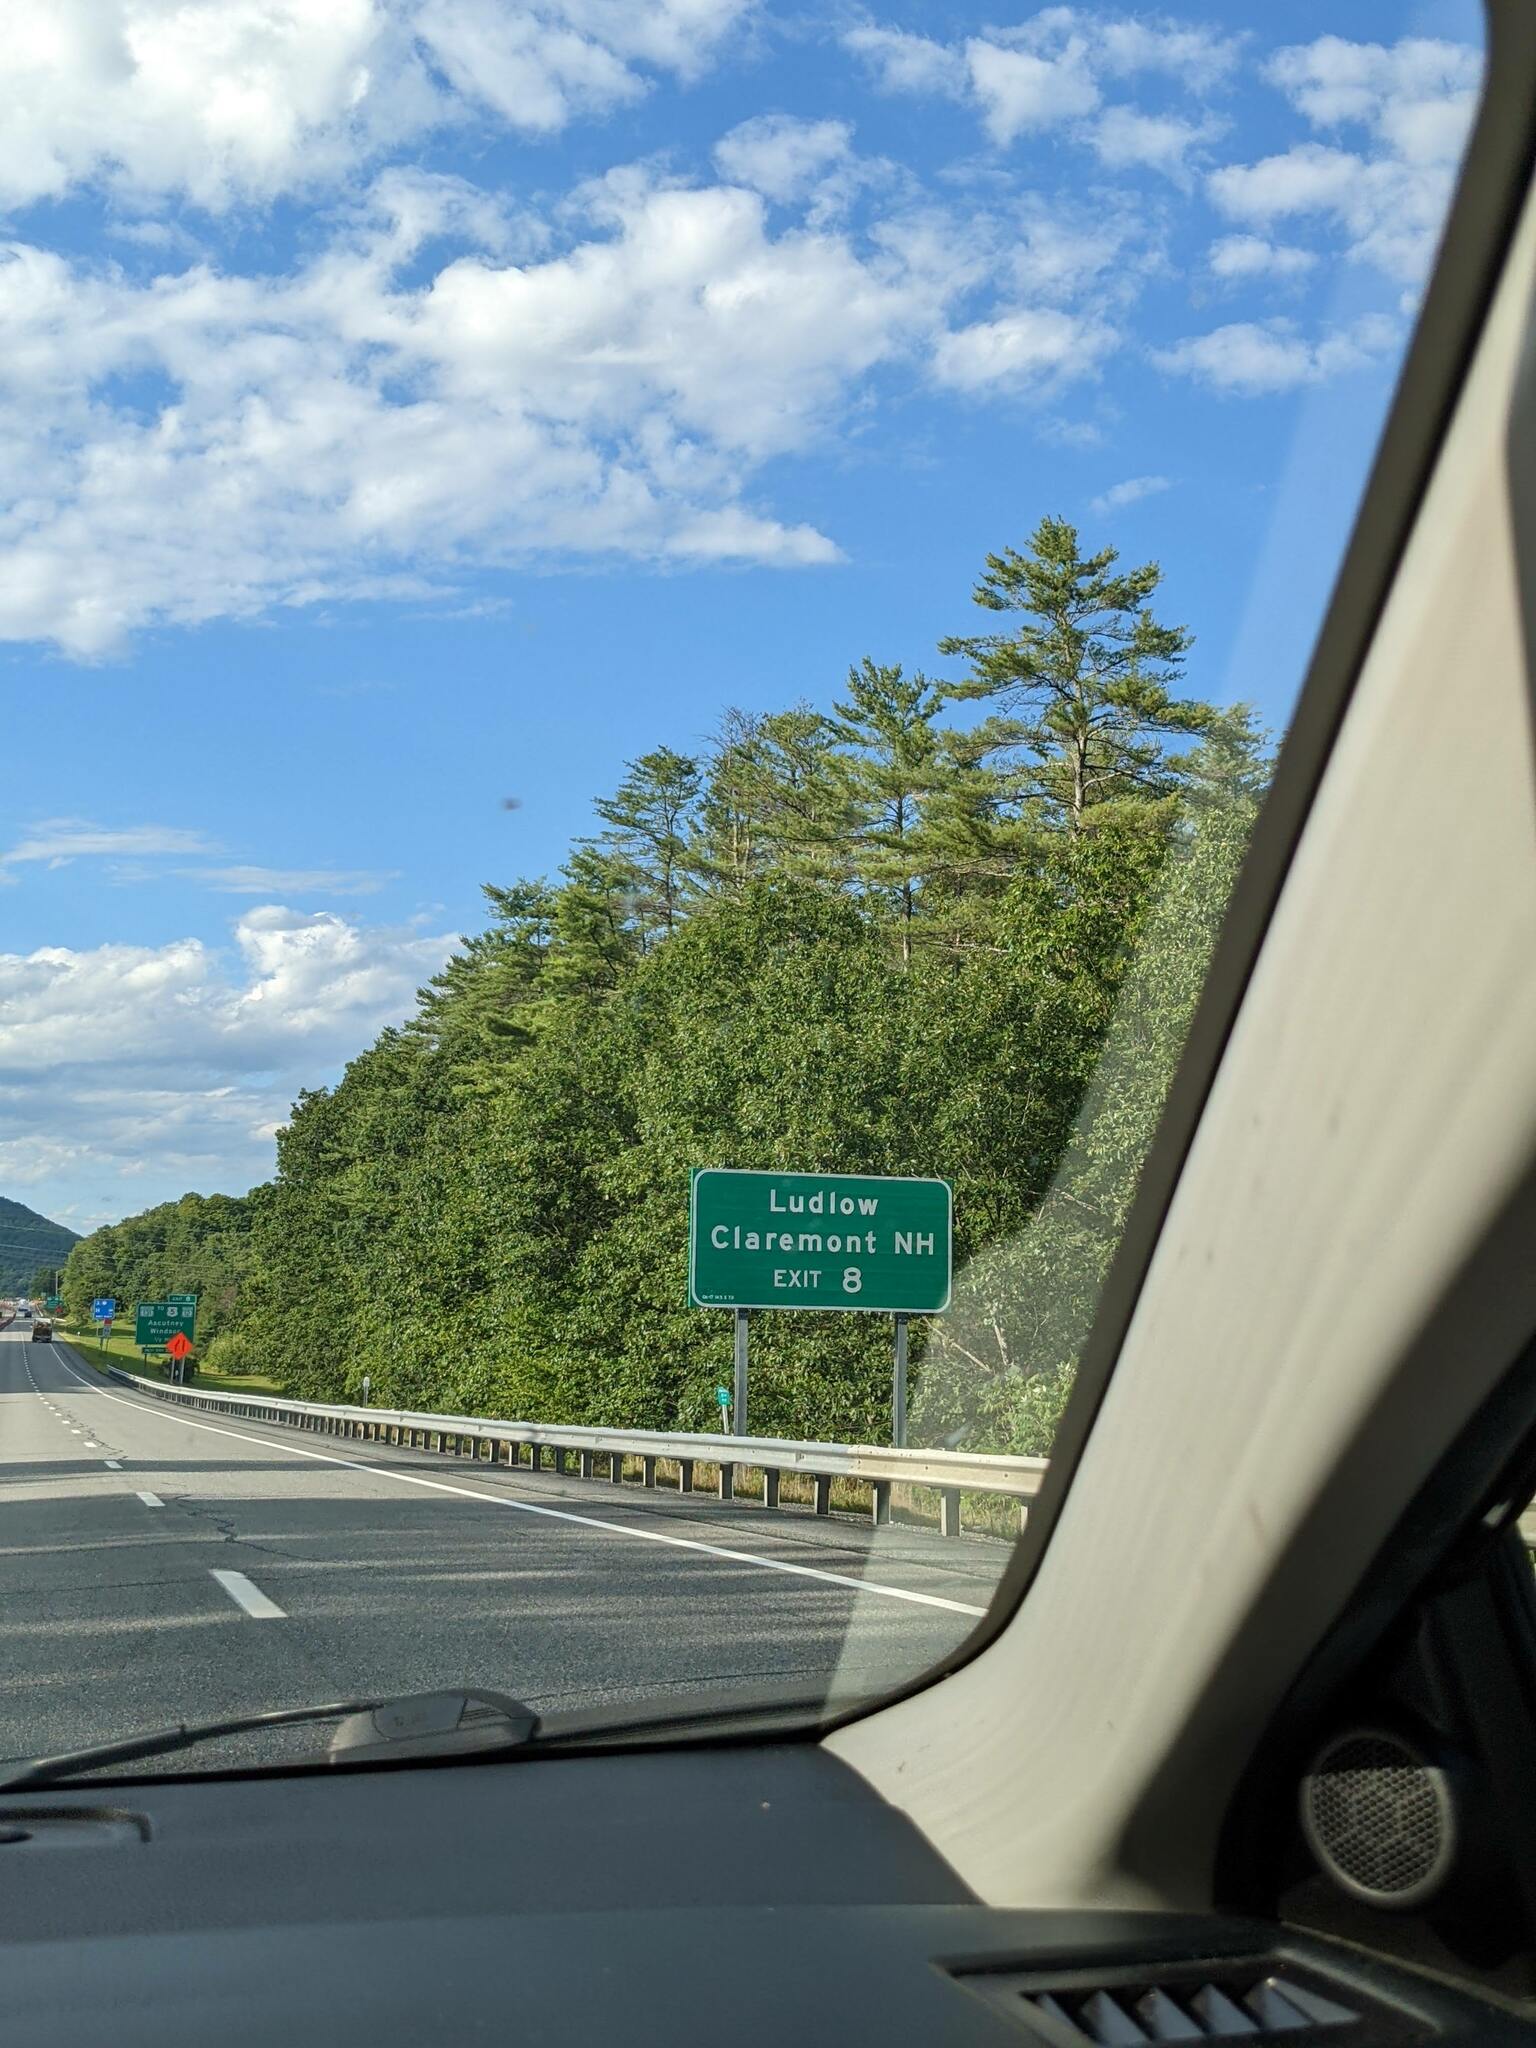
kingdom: Plantae
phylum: Tracheophyta
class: Pinopsida
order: Pinales
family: Pinaceae
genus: Pinus
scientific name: Pinus strobus
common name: Weymouth pine
